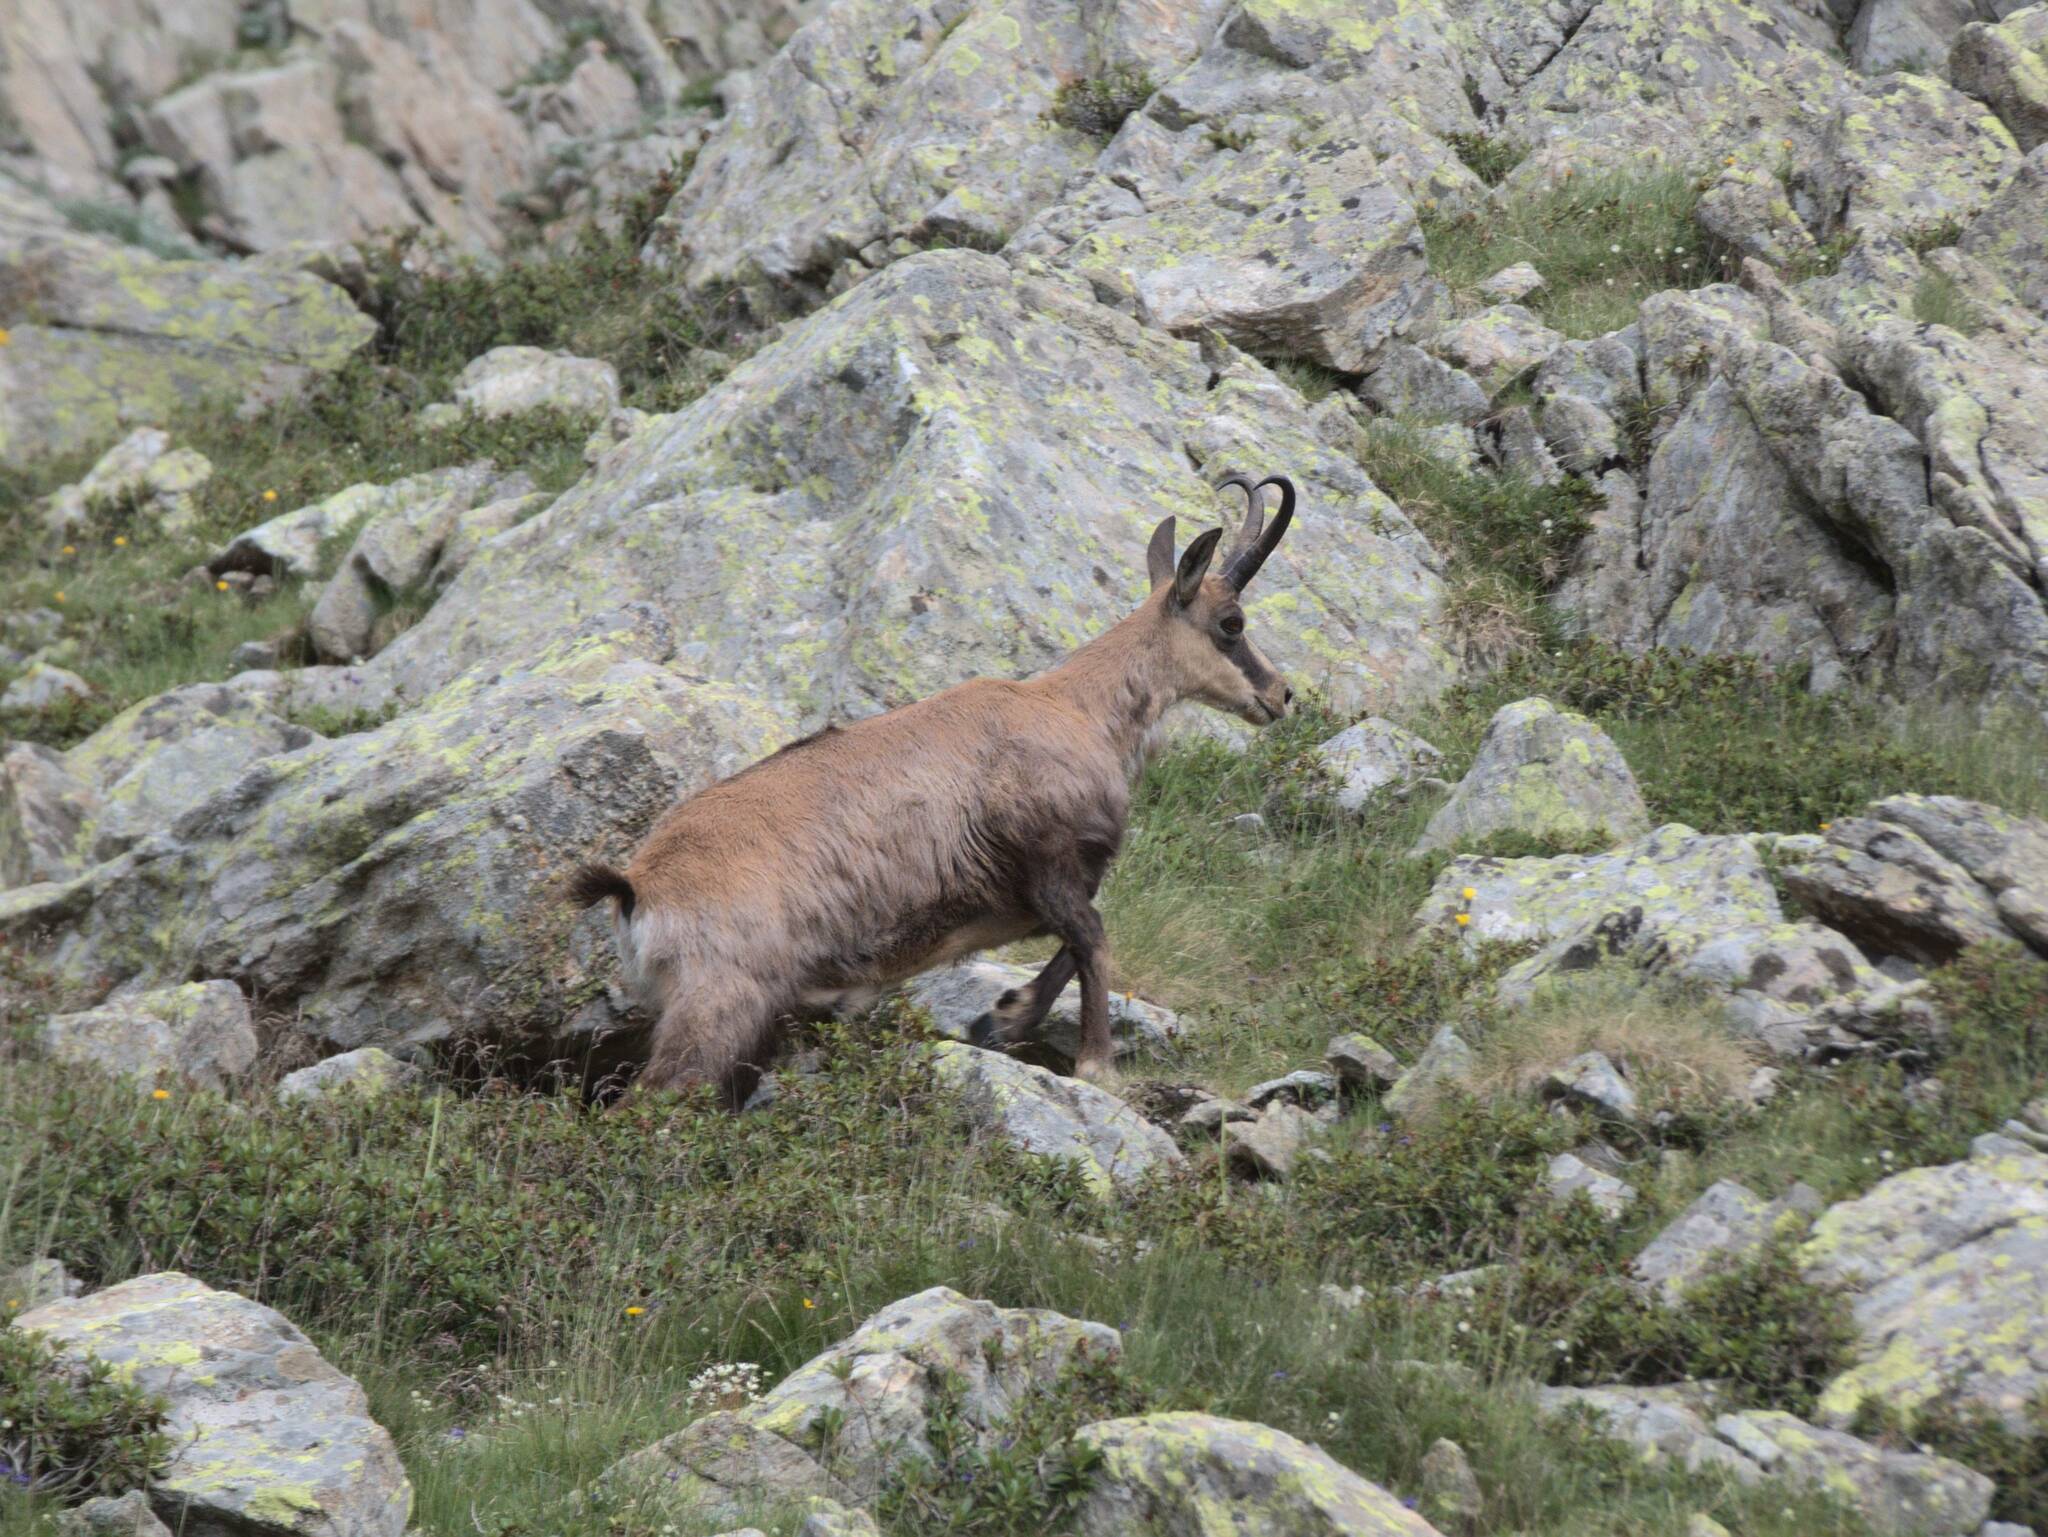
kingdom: Animalia
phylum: Chordata
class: Mammalia
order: Artiodactyla
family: Bovidae
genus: Rupicapra
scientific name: Rupicapra rupicapra
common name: Chamois
